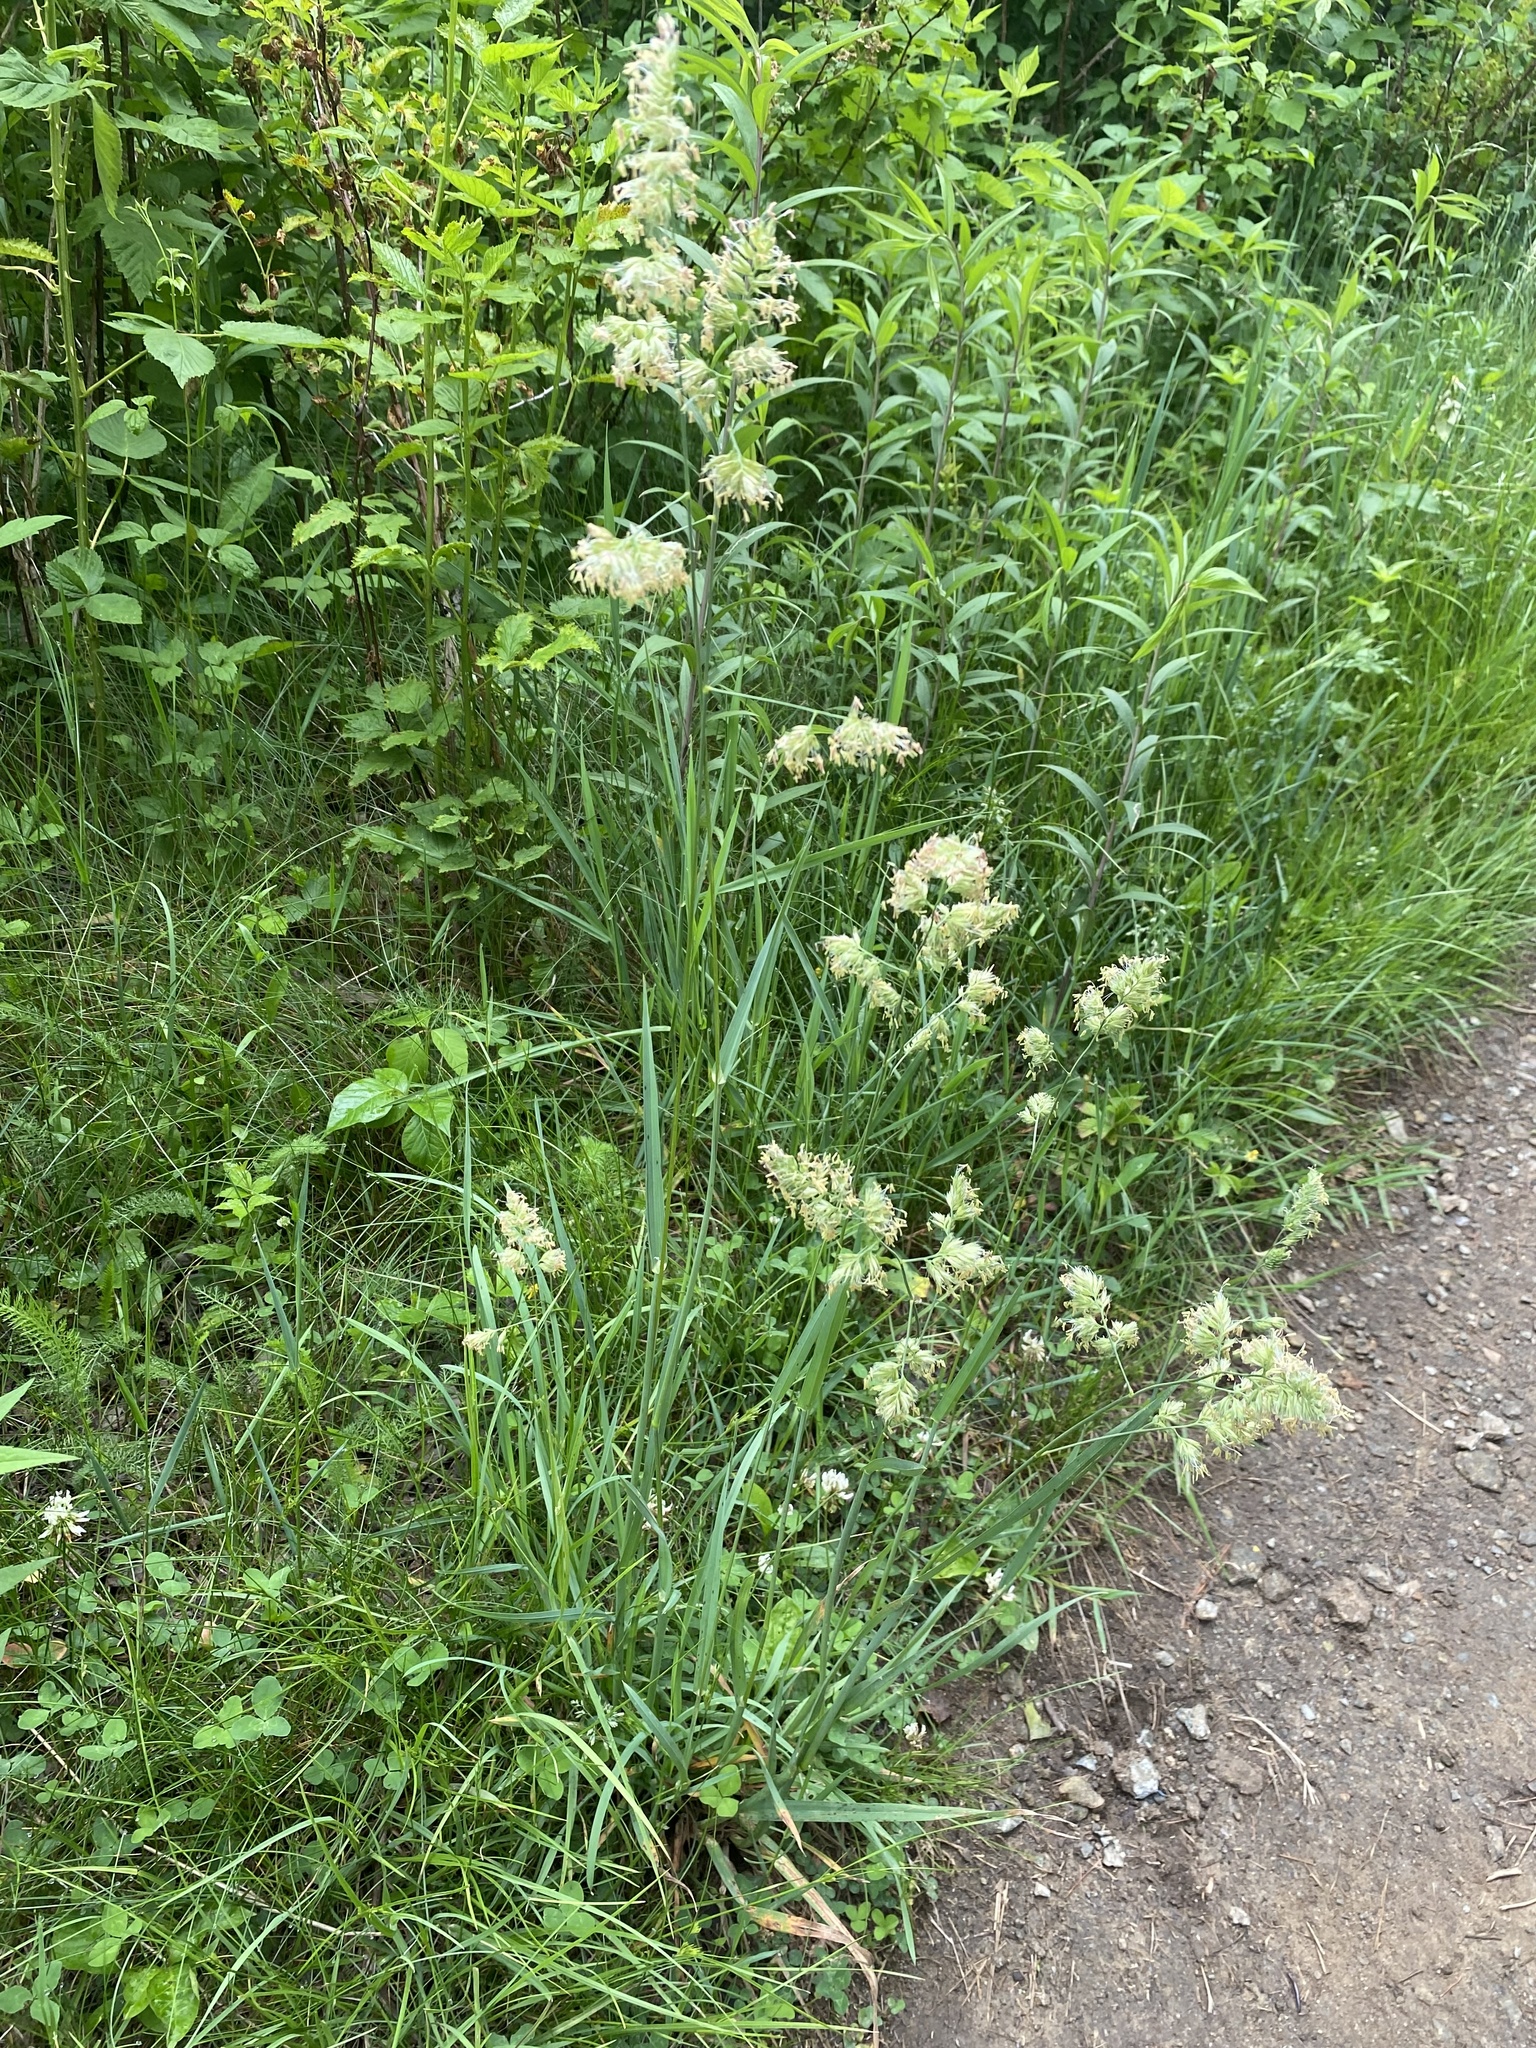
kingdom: Plantae
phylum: Tracheophyta
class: Liliopsida
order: Poales
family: Poaceae
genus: Dactylis
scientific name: Dactylis glomerata
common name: Orchardgrass
